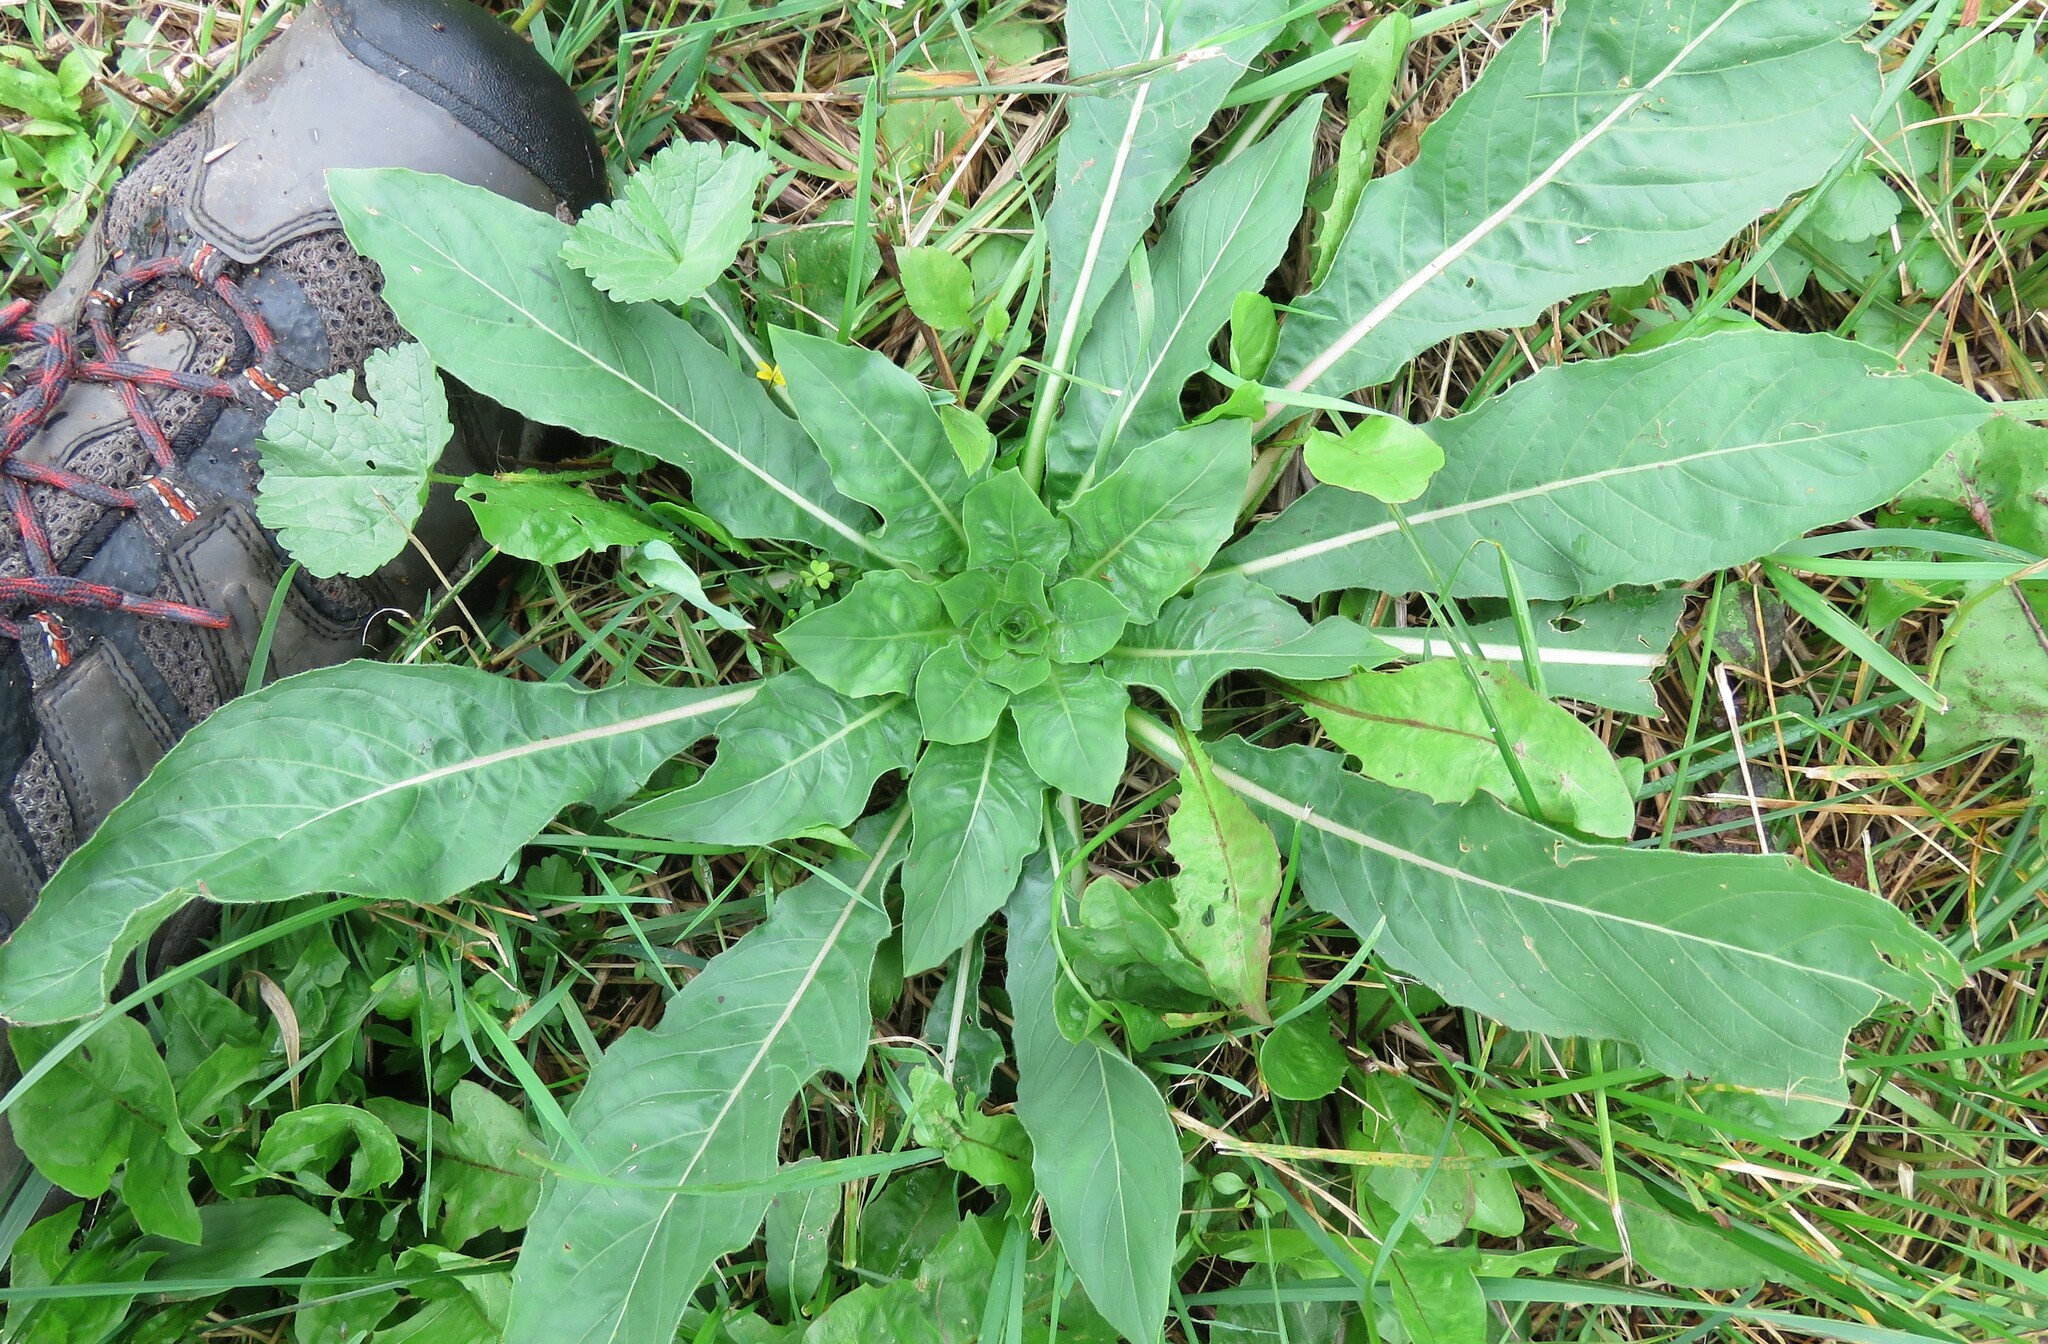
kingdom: Plantae
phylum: Tracheophyta
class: Magnoliopsida
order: Myrtales
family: Onagraceae
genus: Oenothera
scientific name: Oenothera biennis
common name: Common evening-primrose
